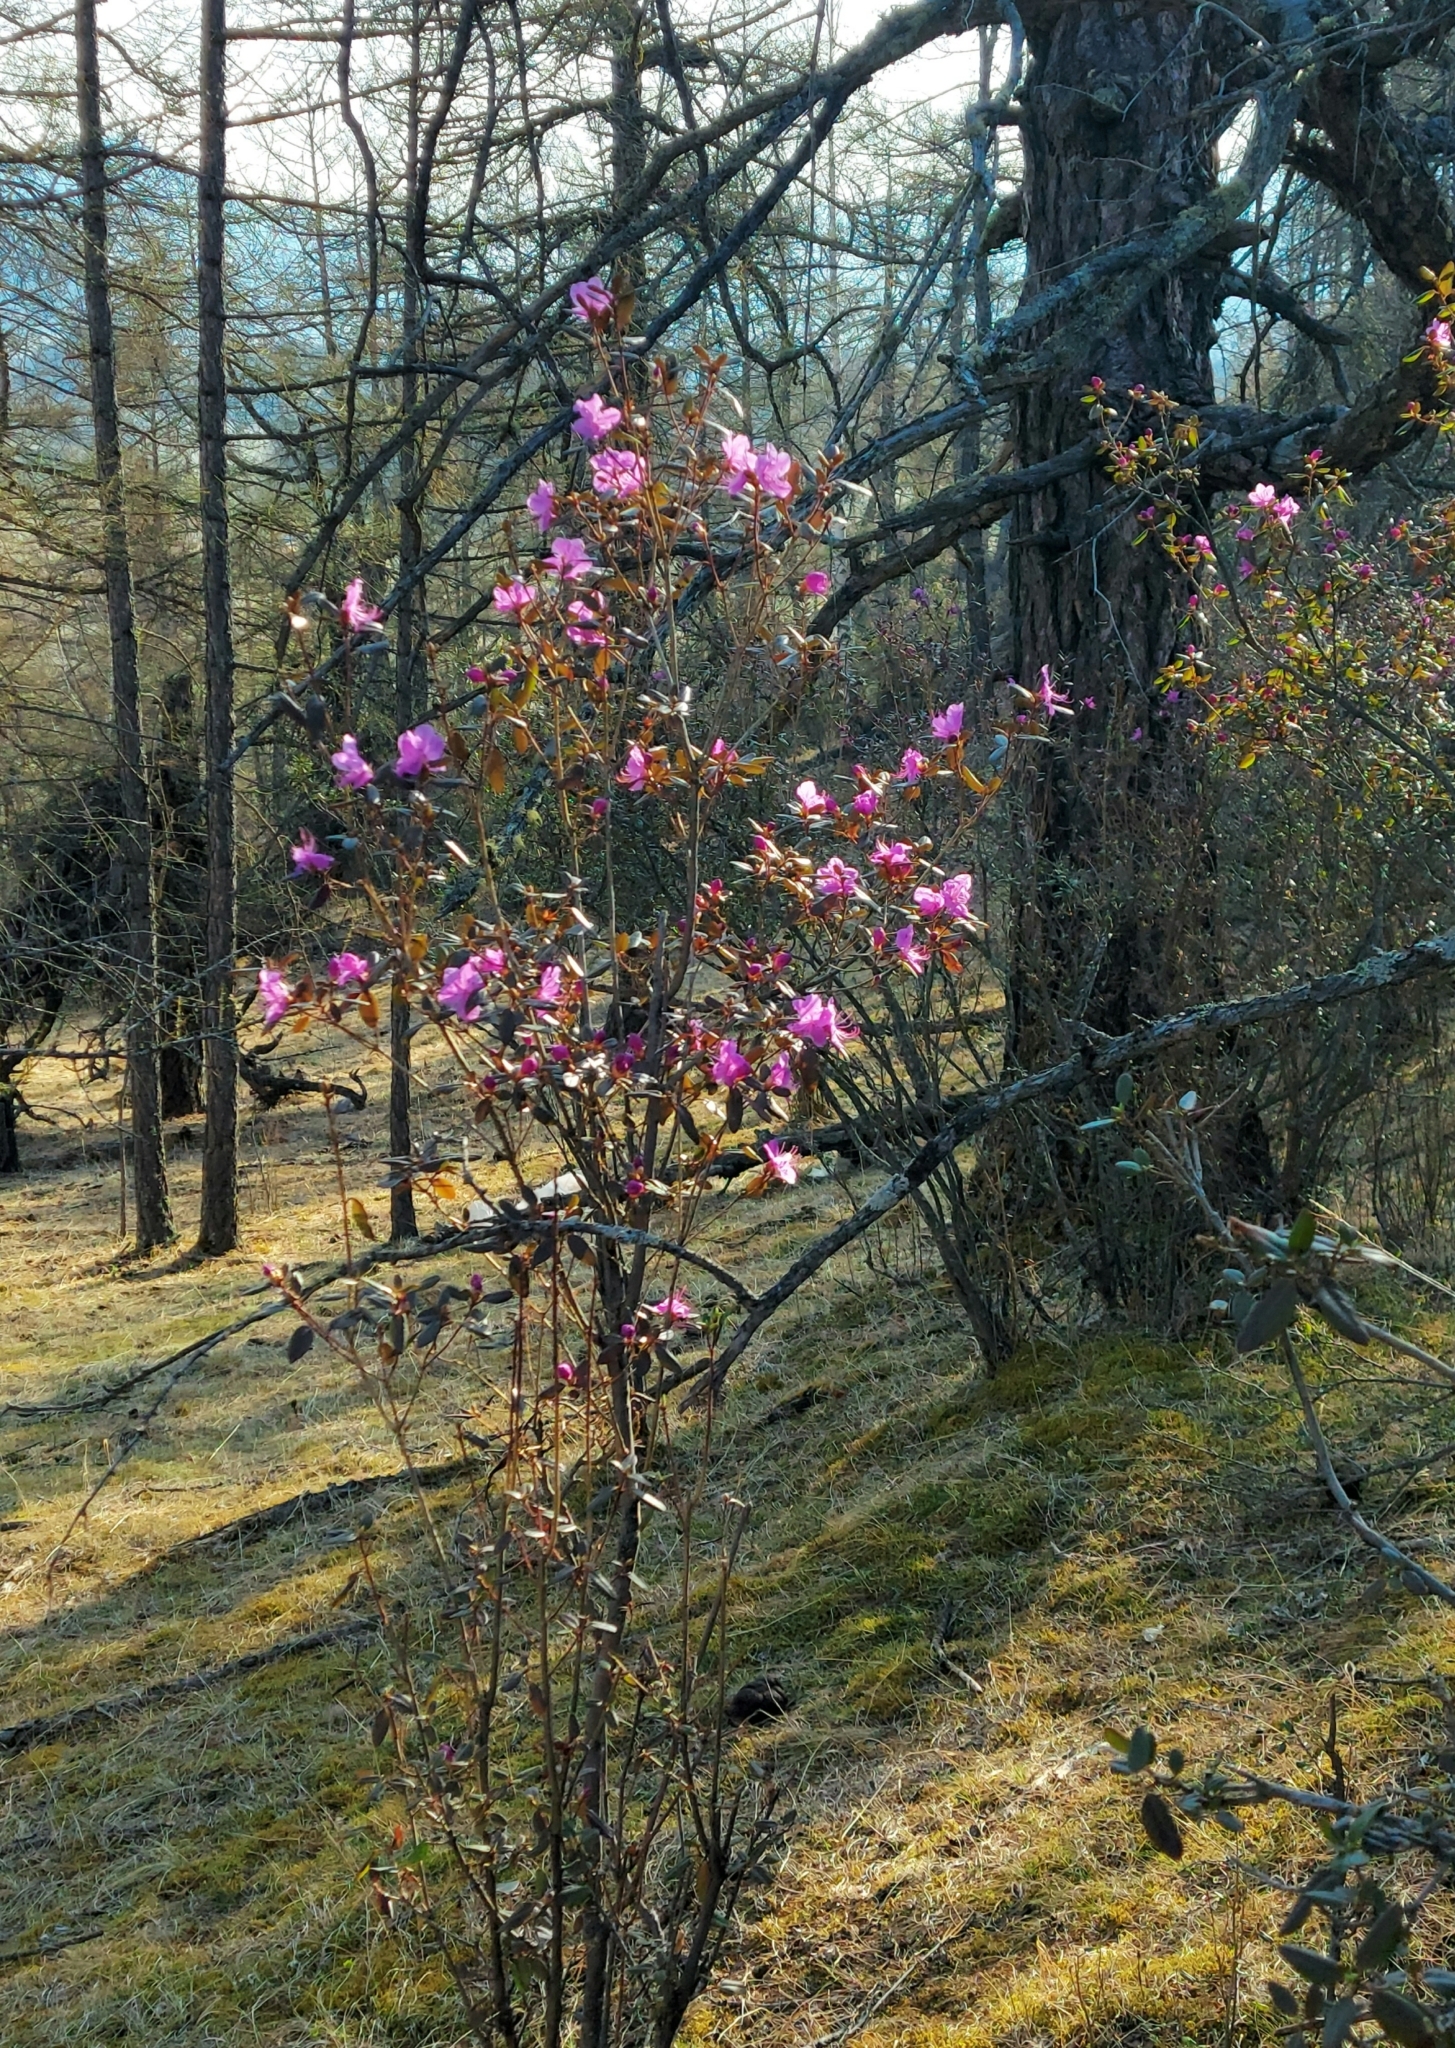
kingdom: Plantae
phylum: Tracheophyta
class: Magnoliopsida
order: Ericales
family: Ericaceae
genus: Rhododendron
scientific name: Rhododendron dauricum
